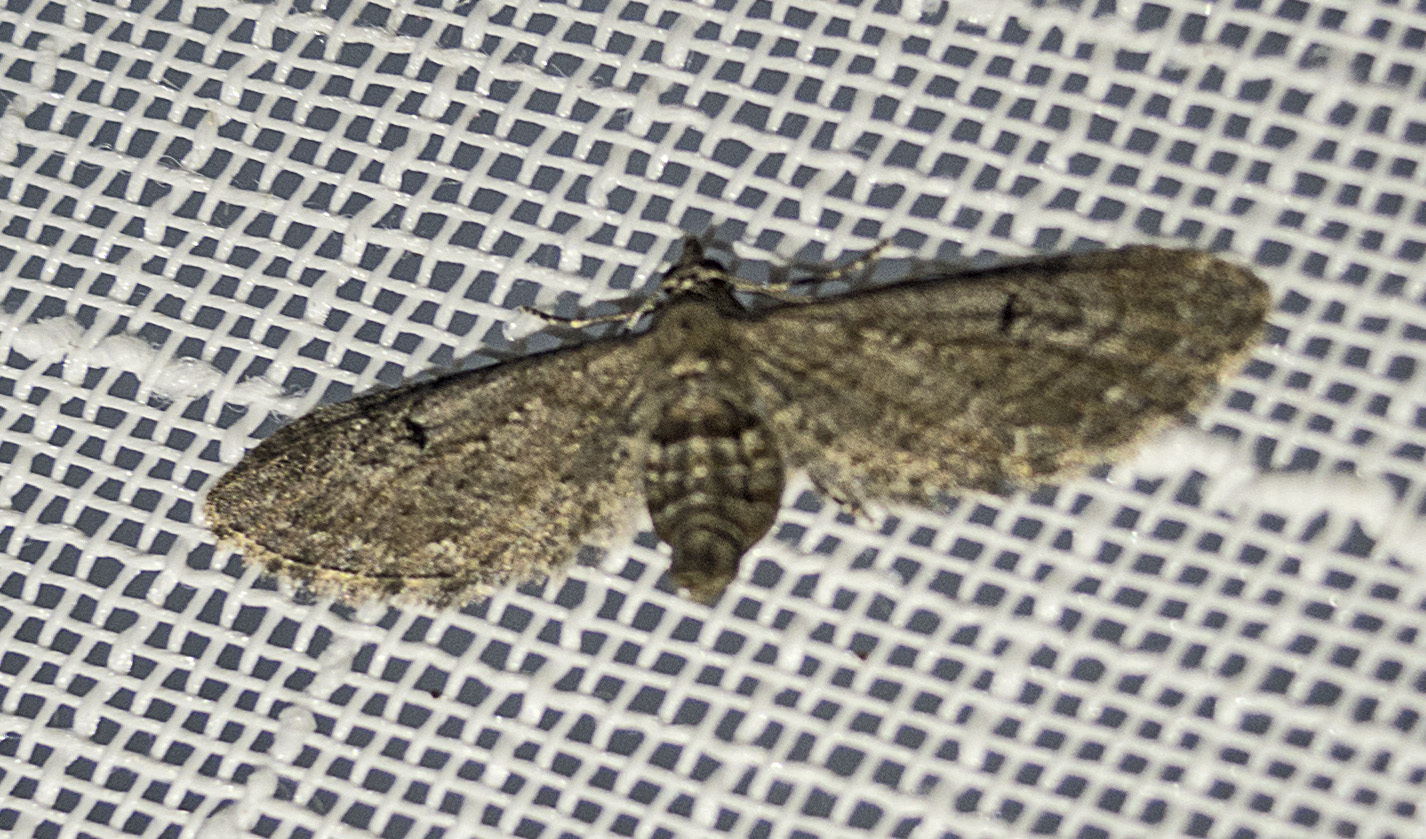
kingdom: Animalia
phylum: Arthropoda
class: Insecta
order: Lepidoptera
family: Geometridae
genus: Eupithecia
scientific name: Eupithecia innotata
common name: Angle-barred pug
